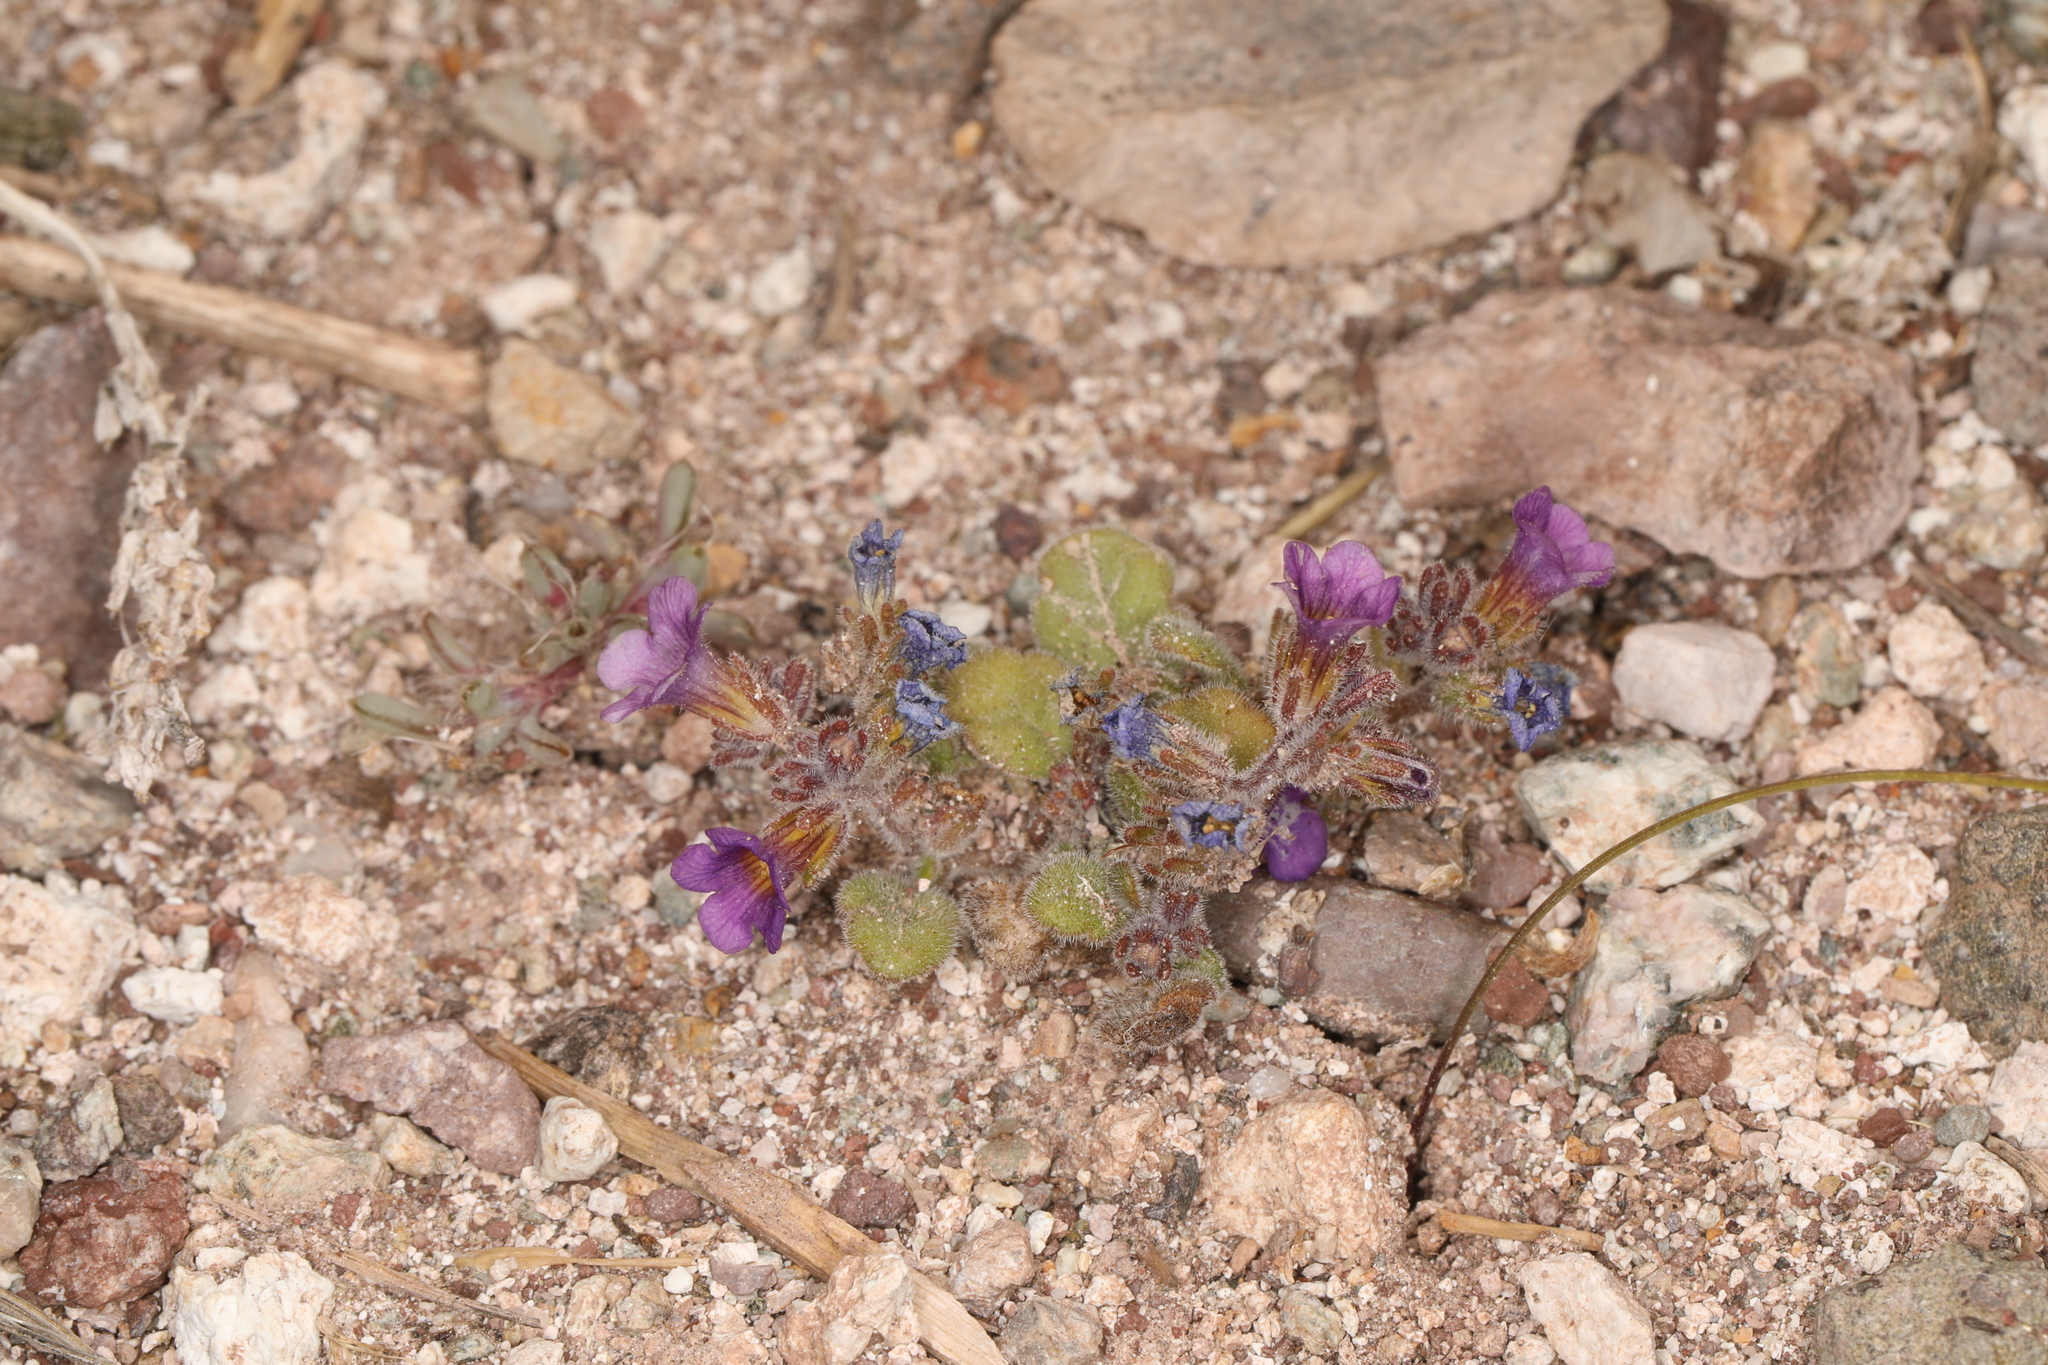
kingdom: Plantae
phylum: Tracheophyta
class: Magnoliopsida
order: Boraginales
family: Hydrophyllaceae
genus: Phacelia
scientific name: Phacelia gymnoclada
